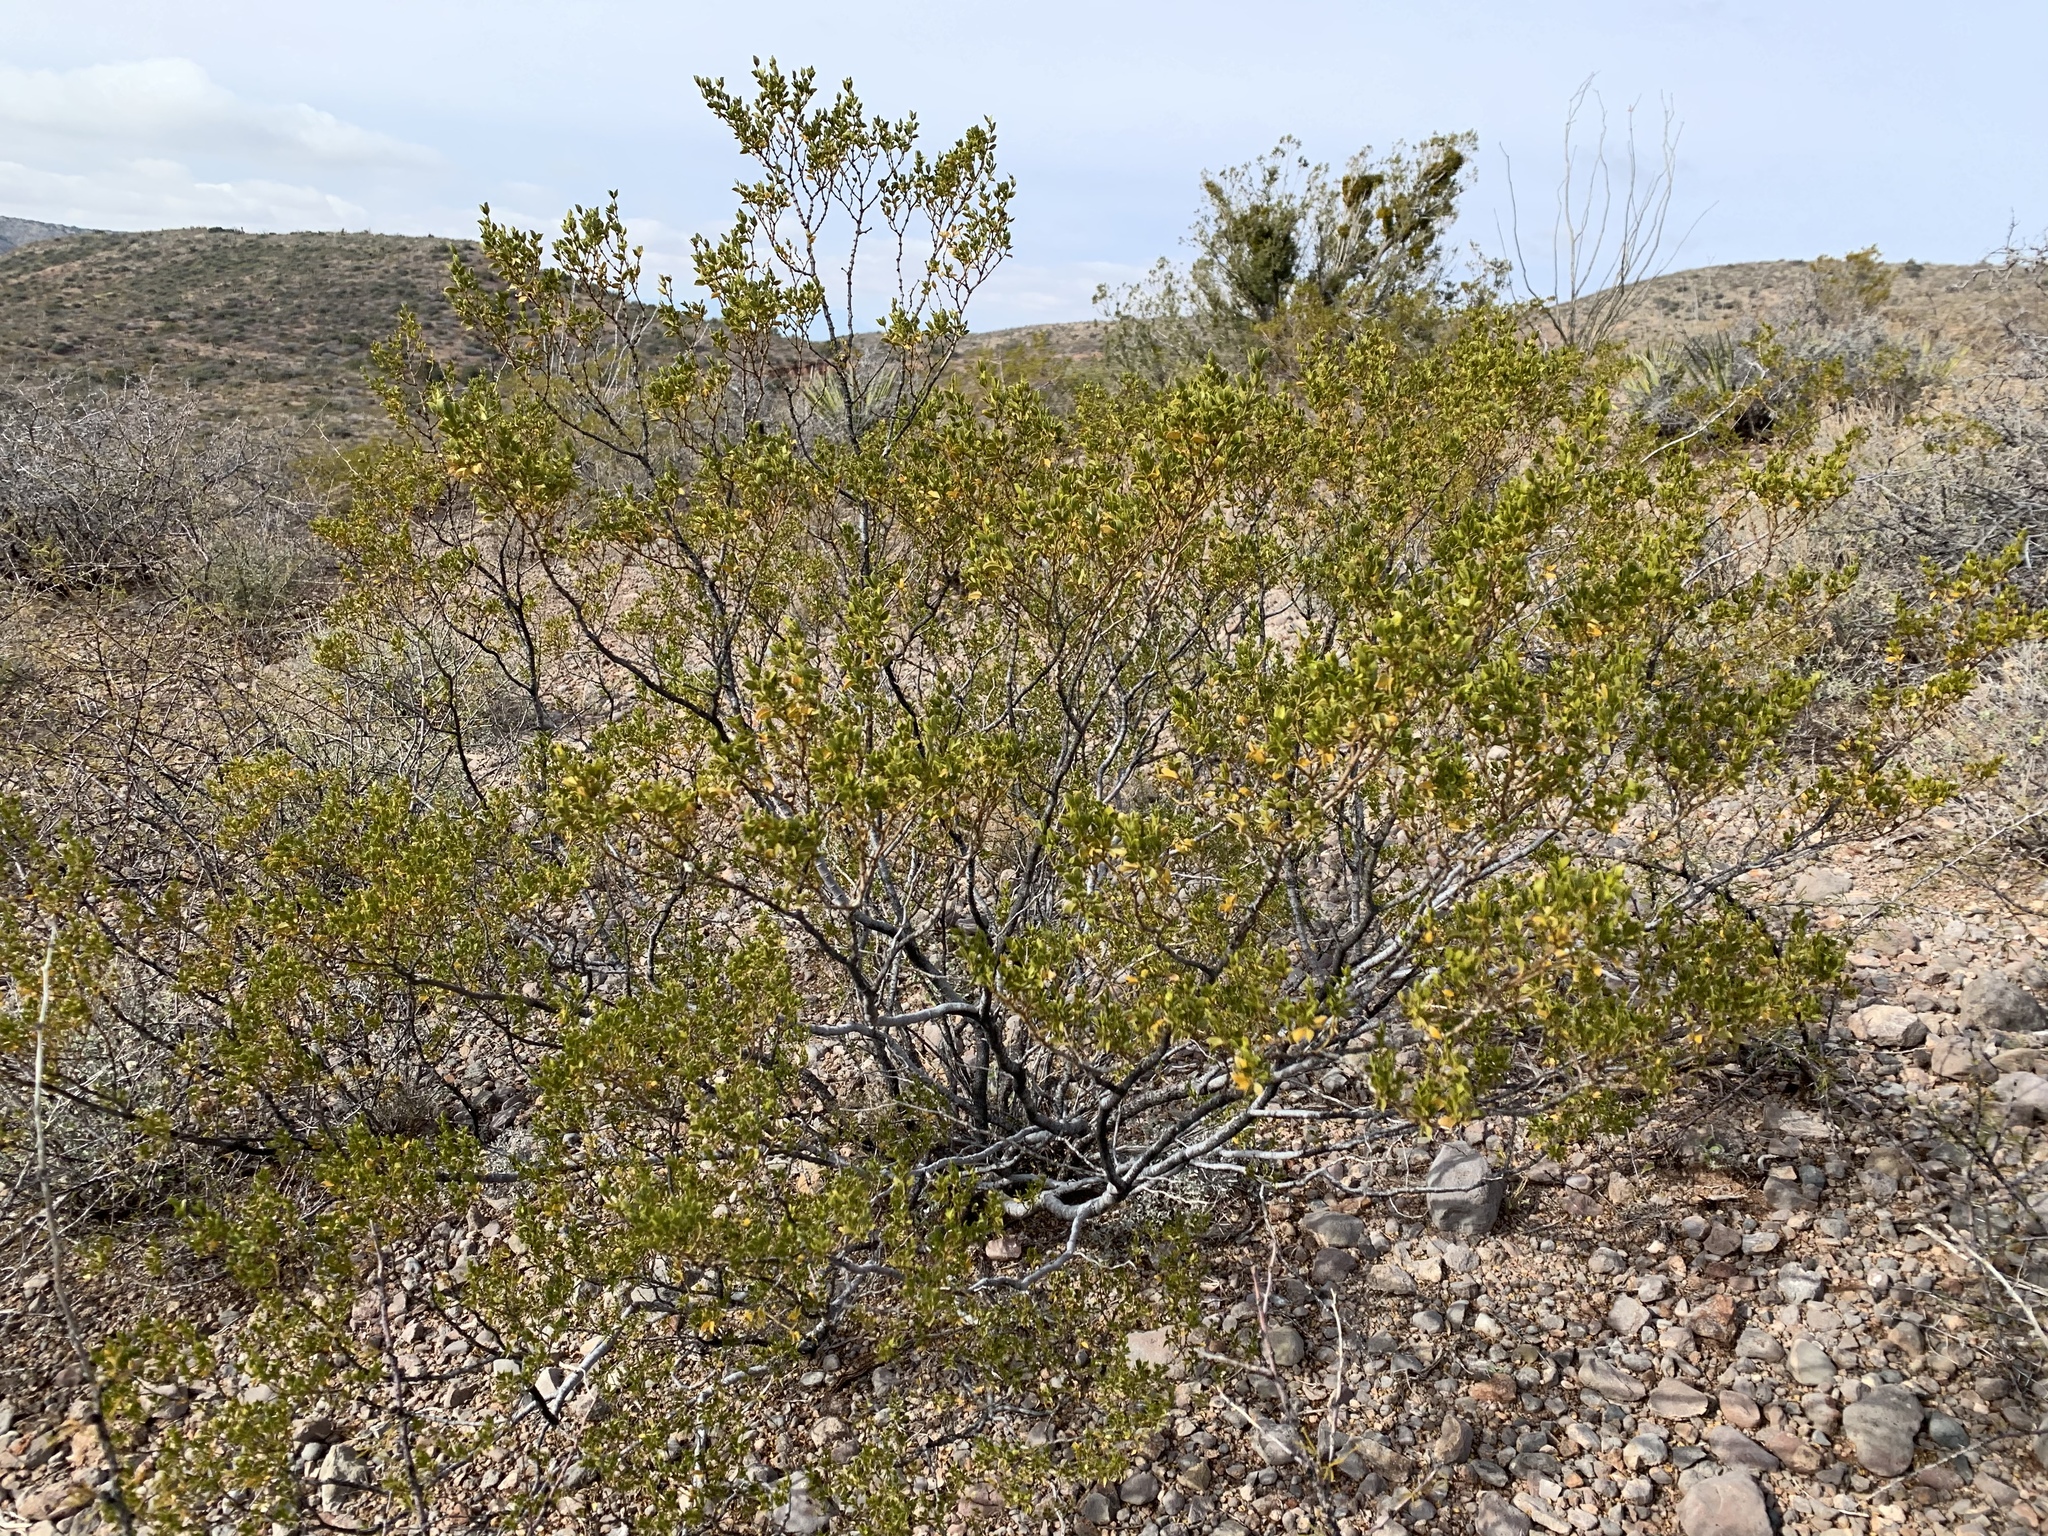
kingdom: Plantae
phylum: Tracheophyta
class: Magnoliopsida
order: Zygophyllales
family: Zygophyllaceae
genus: Larrea
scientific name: Larrea tridentata
